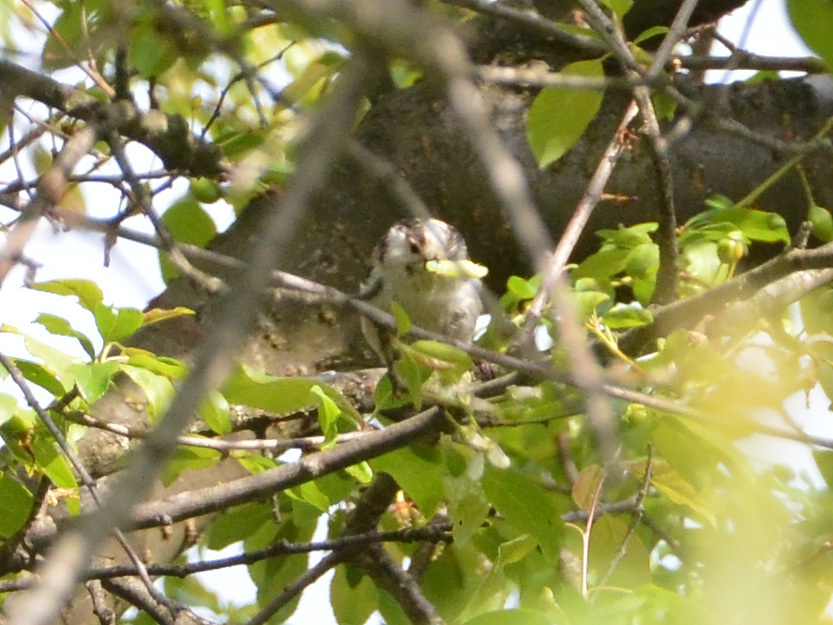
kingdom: Animalia
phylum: Chordata
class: Aves
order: Passeriformes
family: Aegithalidae
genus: Aegithalos
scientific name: Aegithalos caudatus
